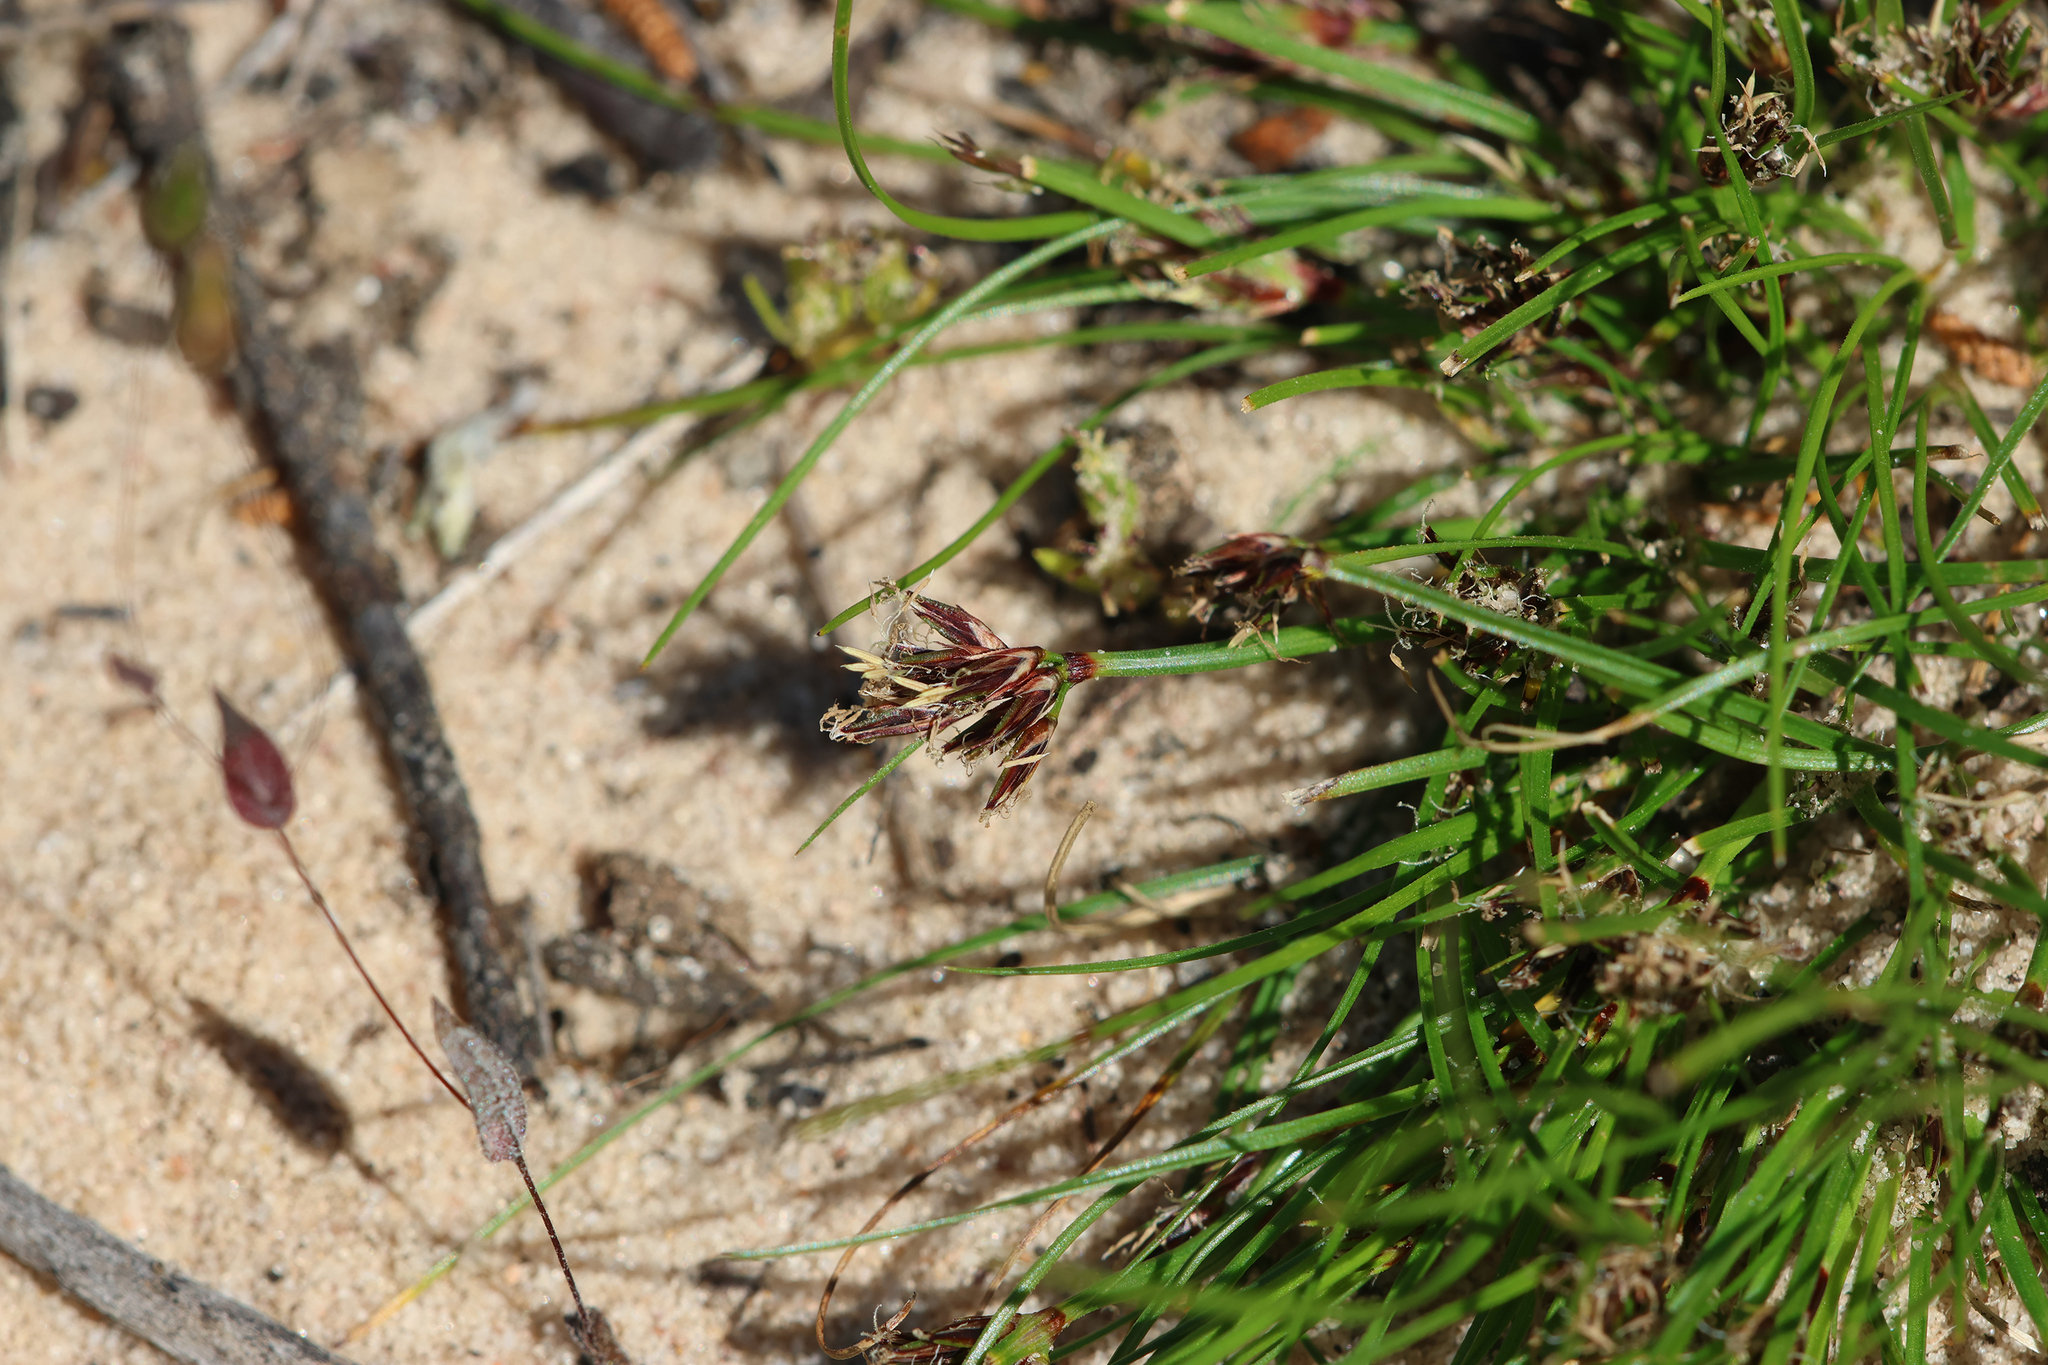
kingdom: Plantae
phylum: Tracheophyta
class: Liliopsida
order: Poales
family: Cyperaceae
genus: Schoenus
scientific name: Schoenus apogon
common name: Smooth bogrush
